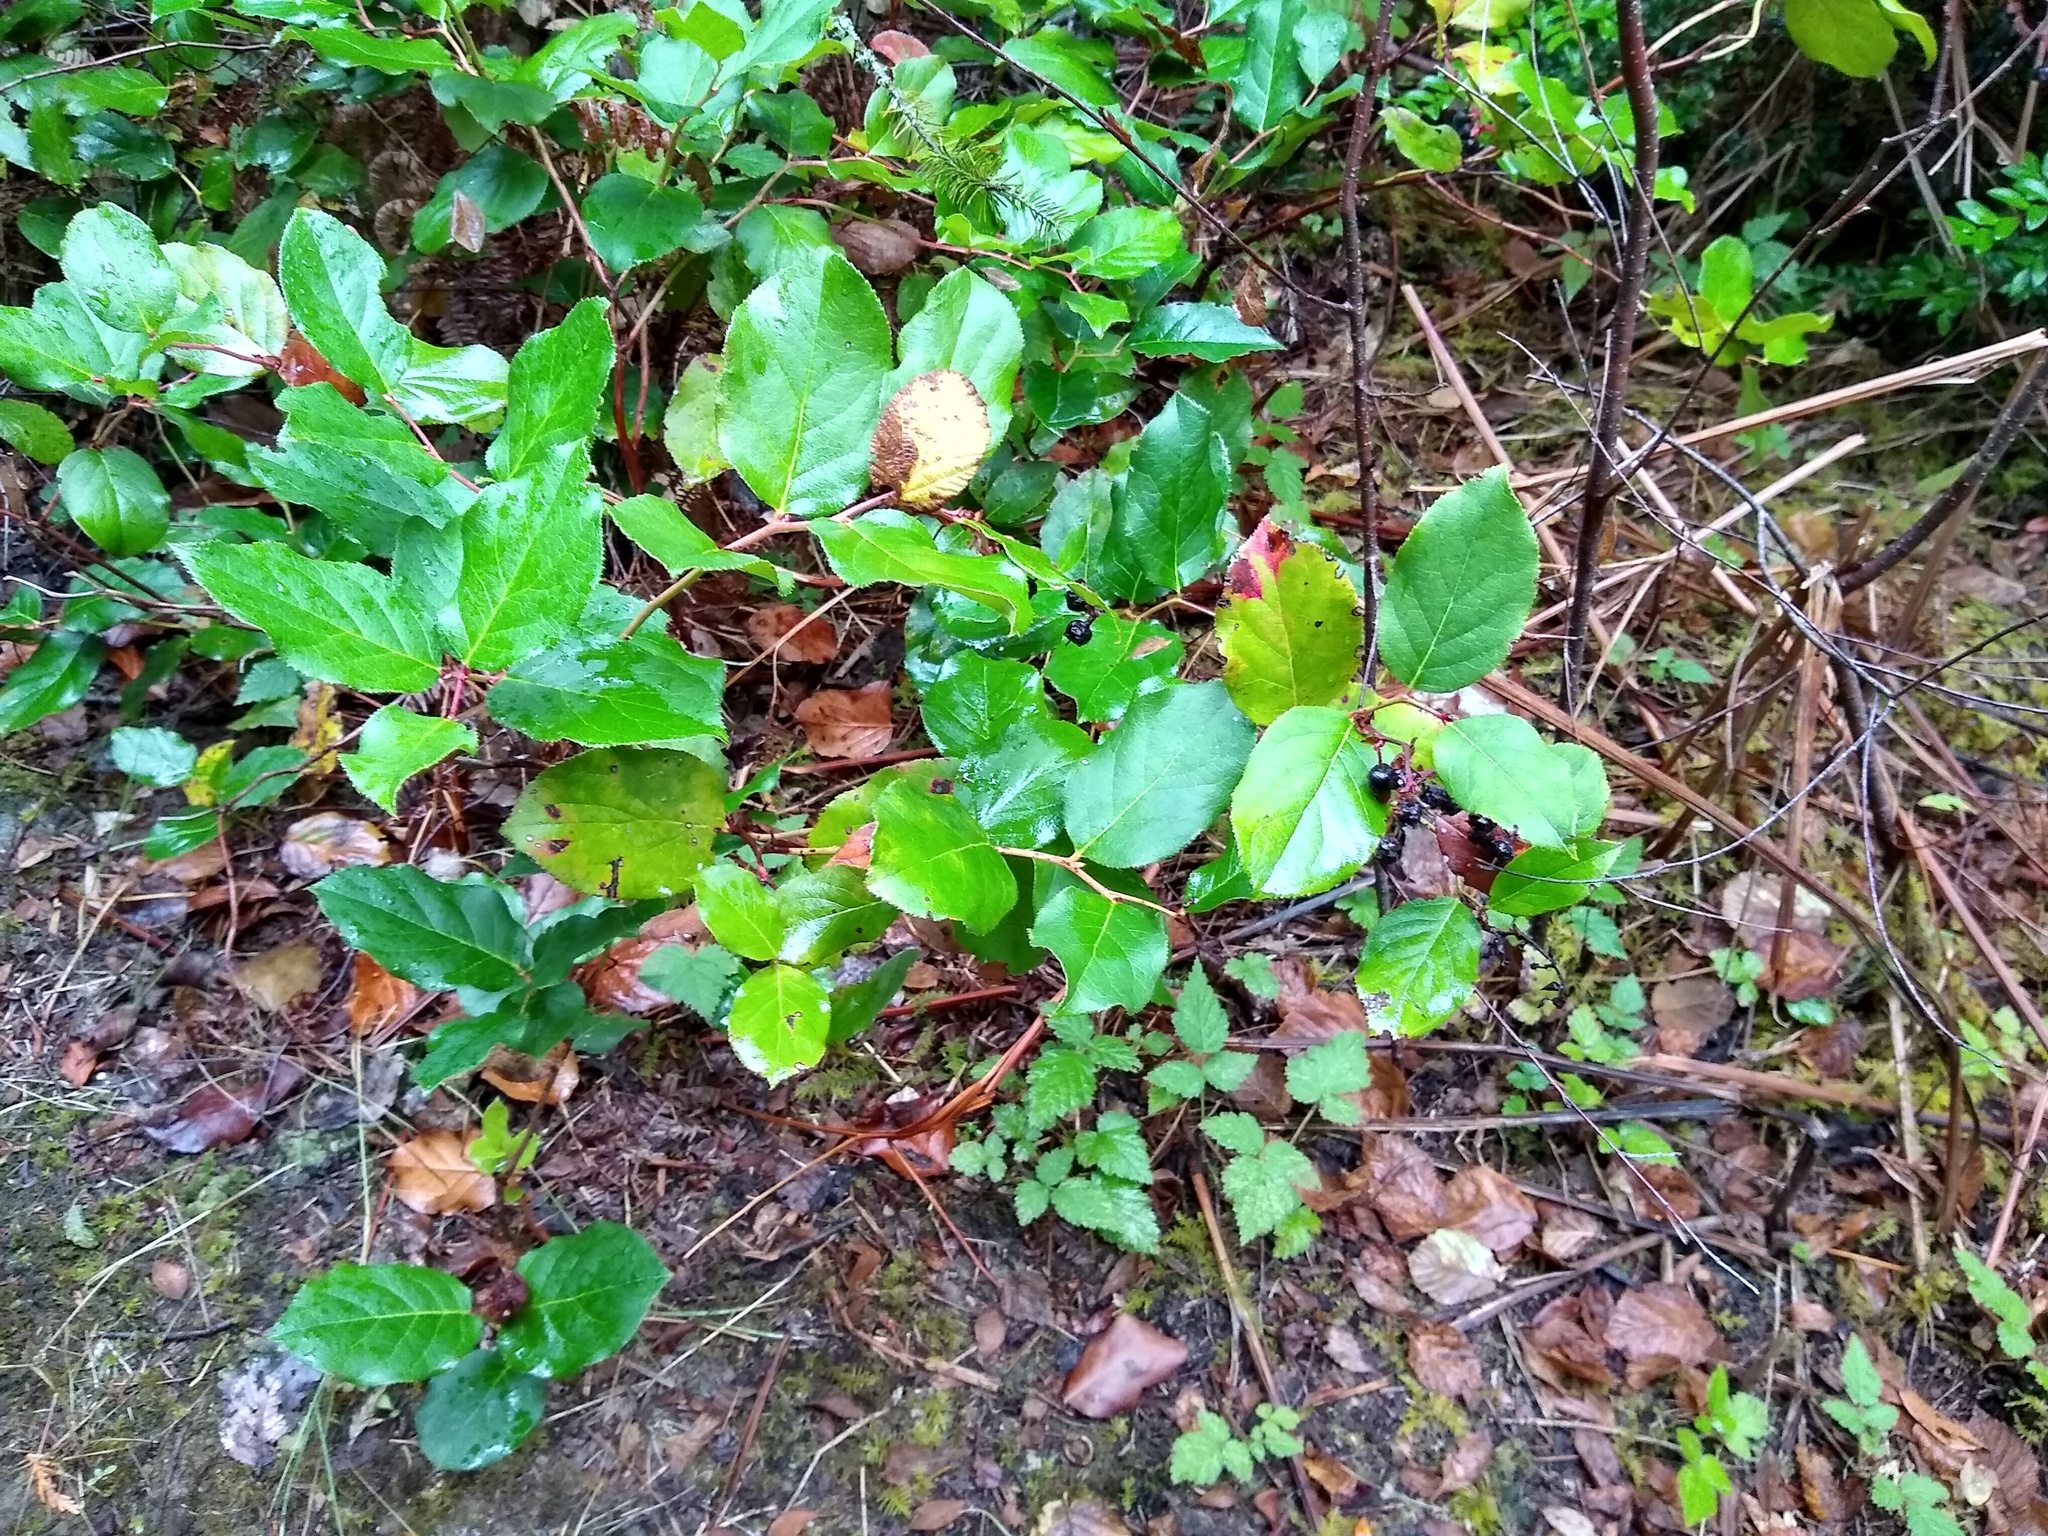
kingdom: Plantae
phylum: Tracheophyta
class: Magnoliopsida
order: Ericales
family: Ericaceae
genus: Gaultheria
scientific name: Gaultheria shallon
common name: Shallon
